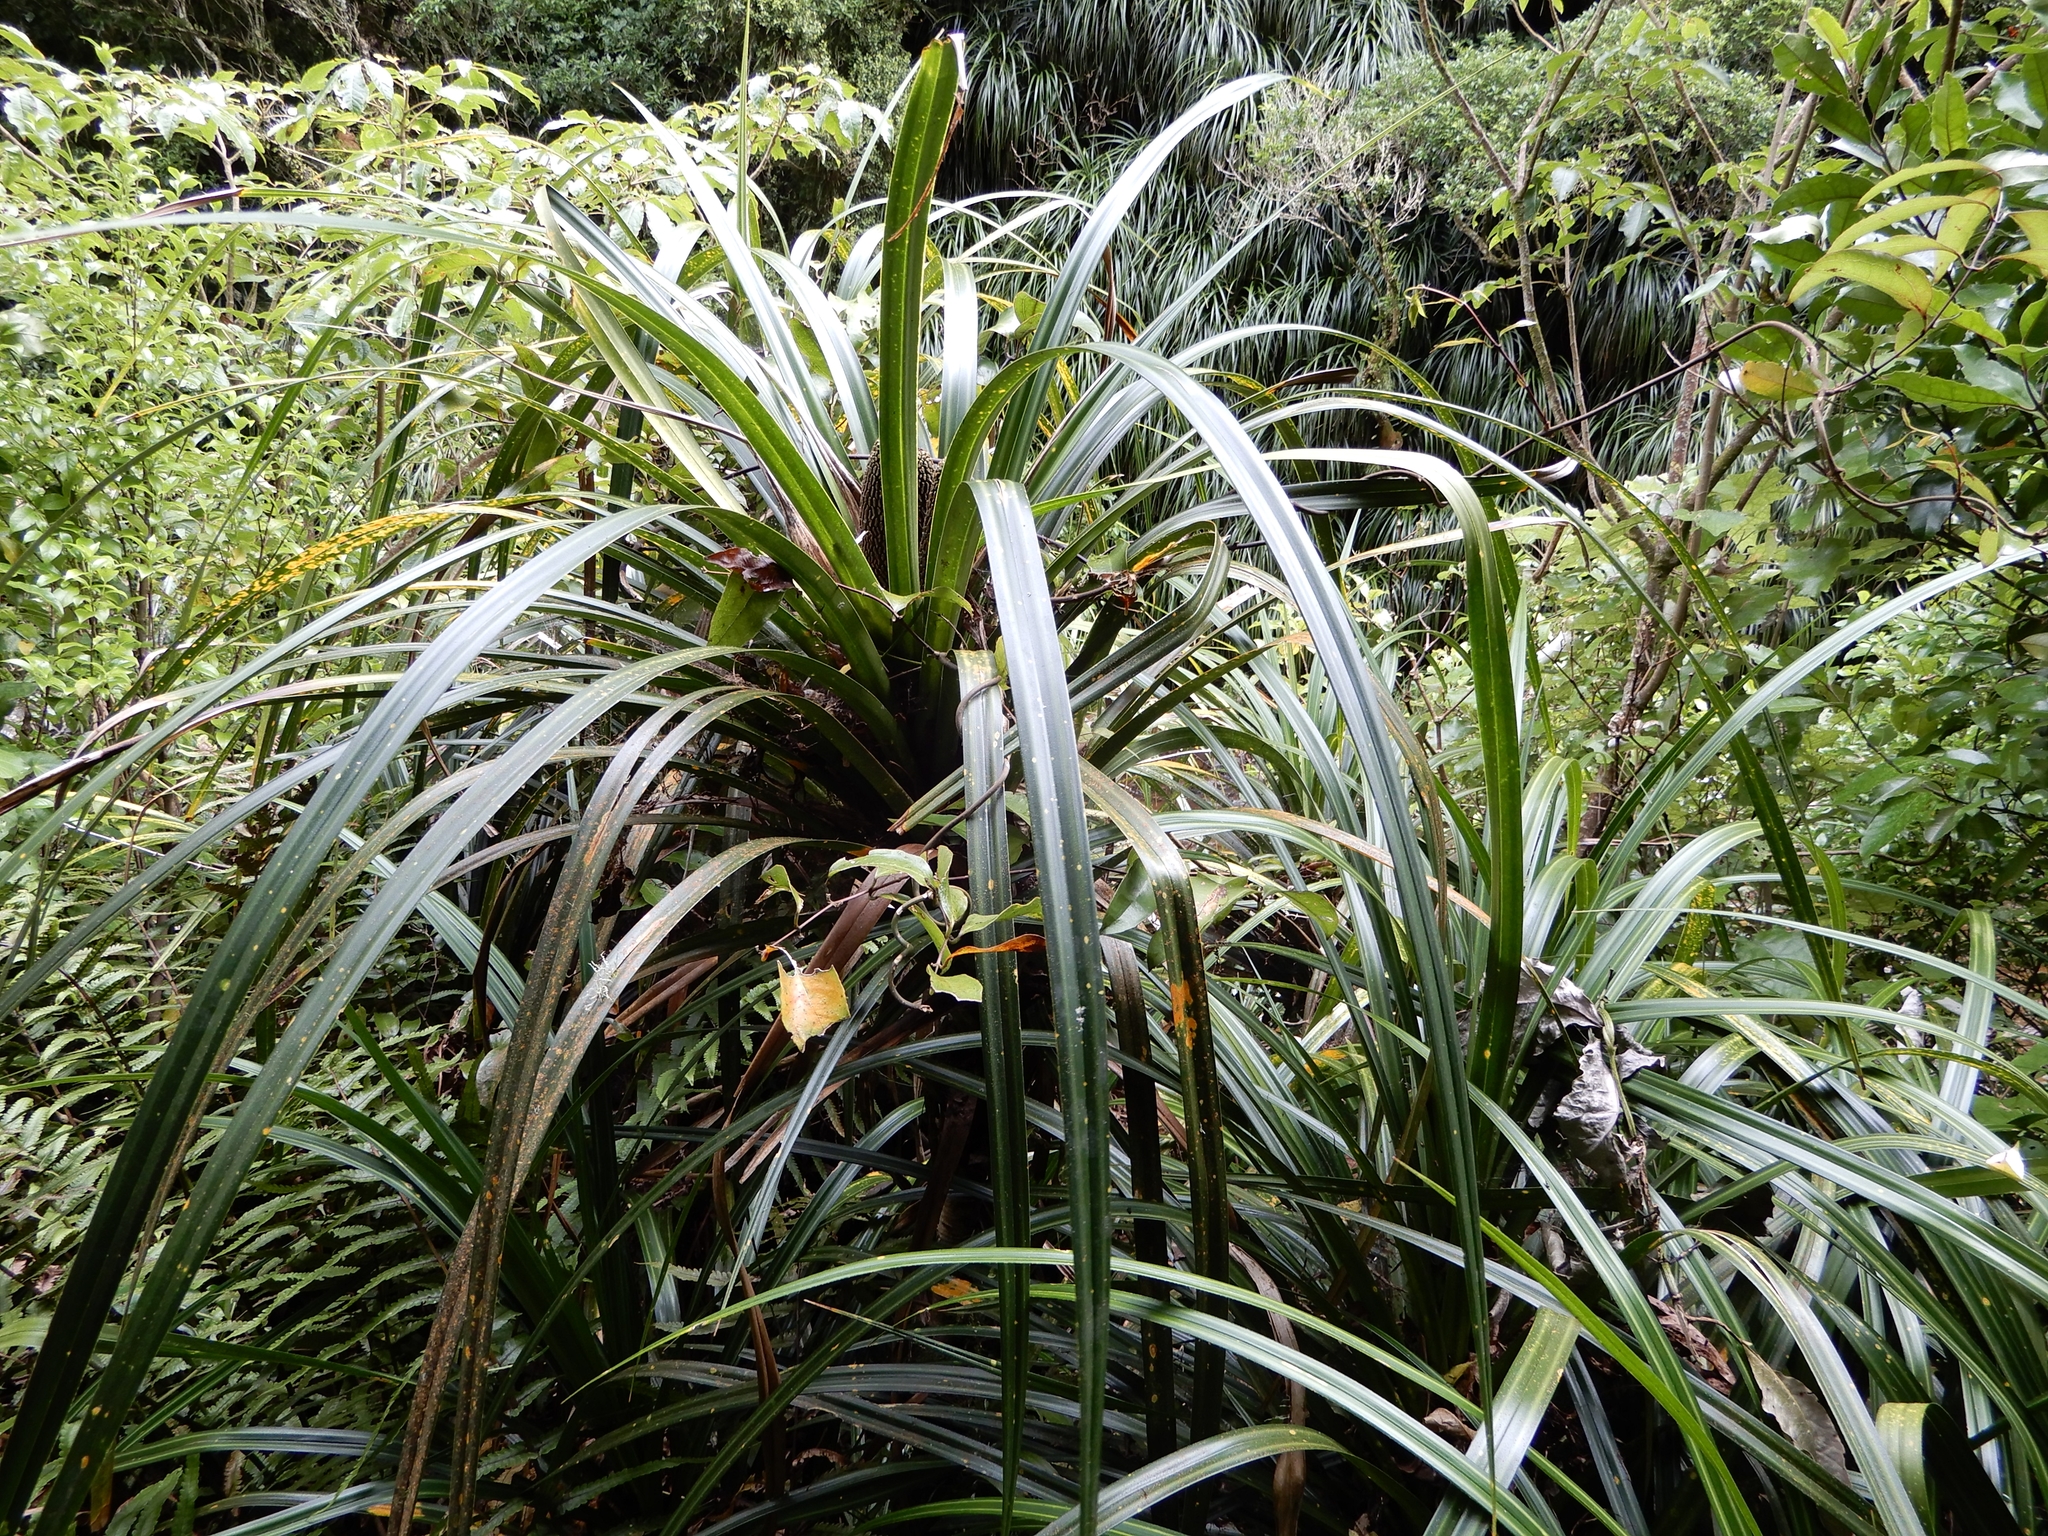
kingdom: Plantae
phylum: Tracheophyta
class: Liliopsida
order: Pandanales
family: Pandanaceae
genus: Freycinetia
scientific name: Freycinetia banksii
